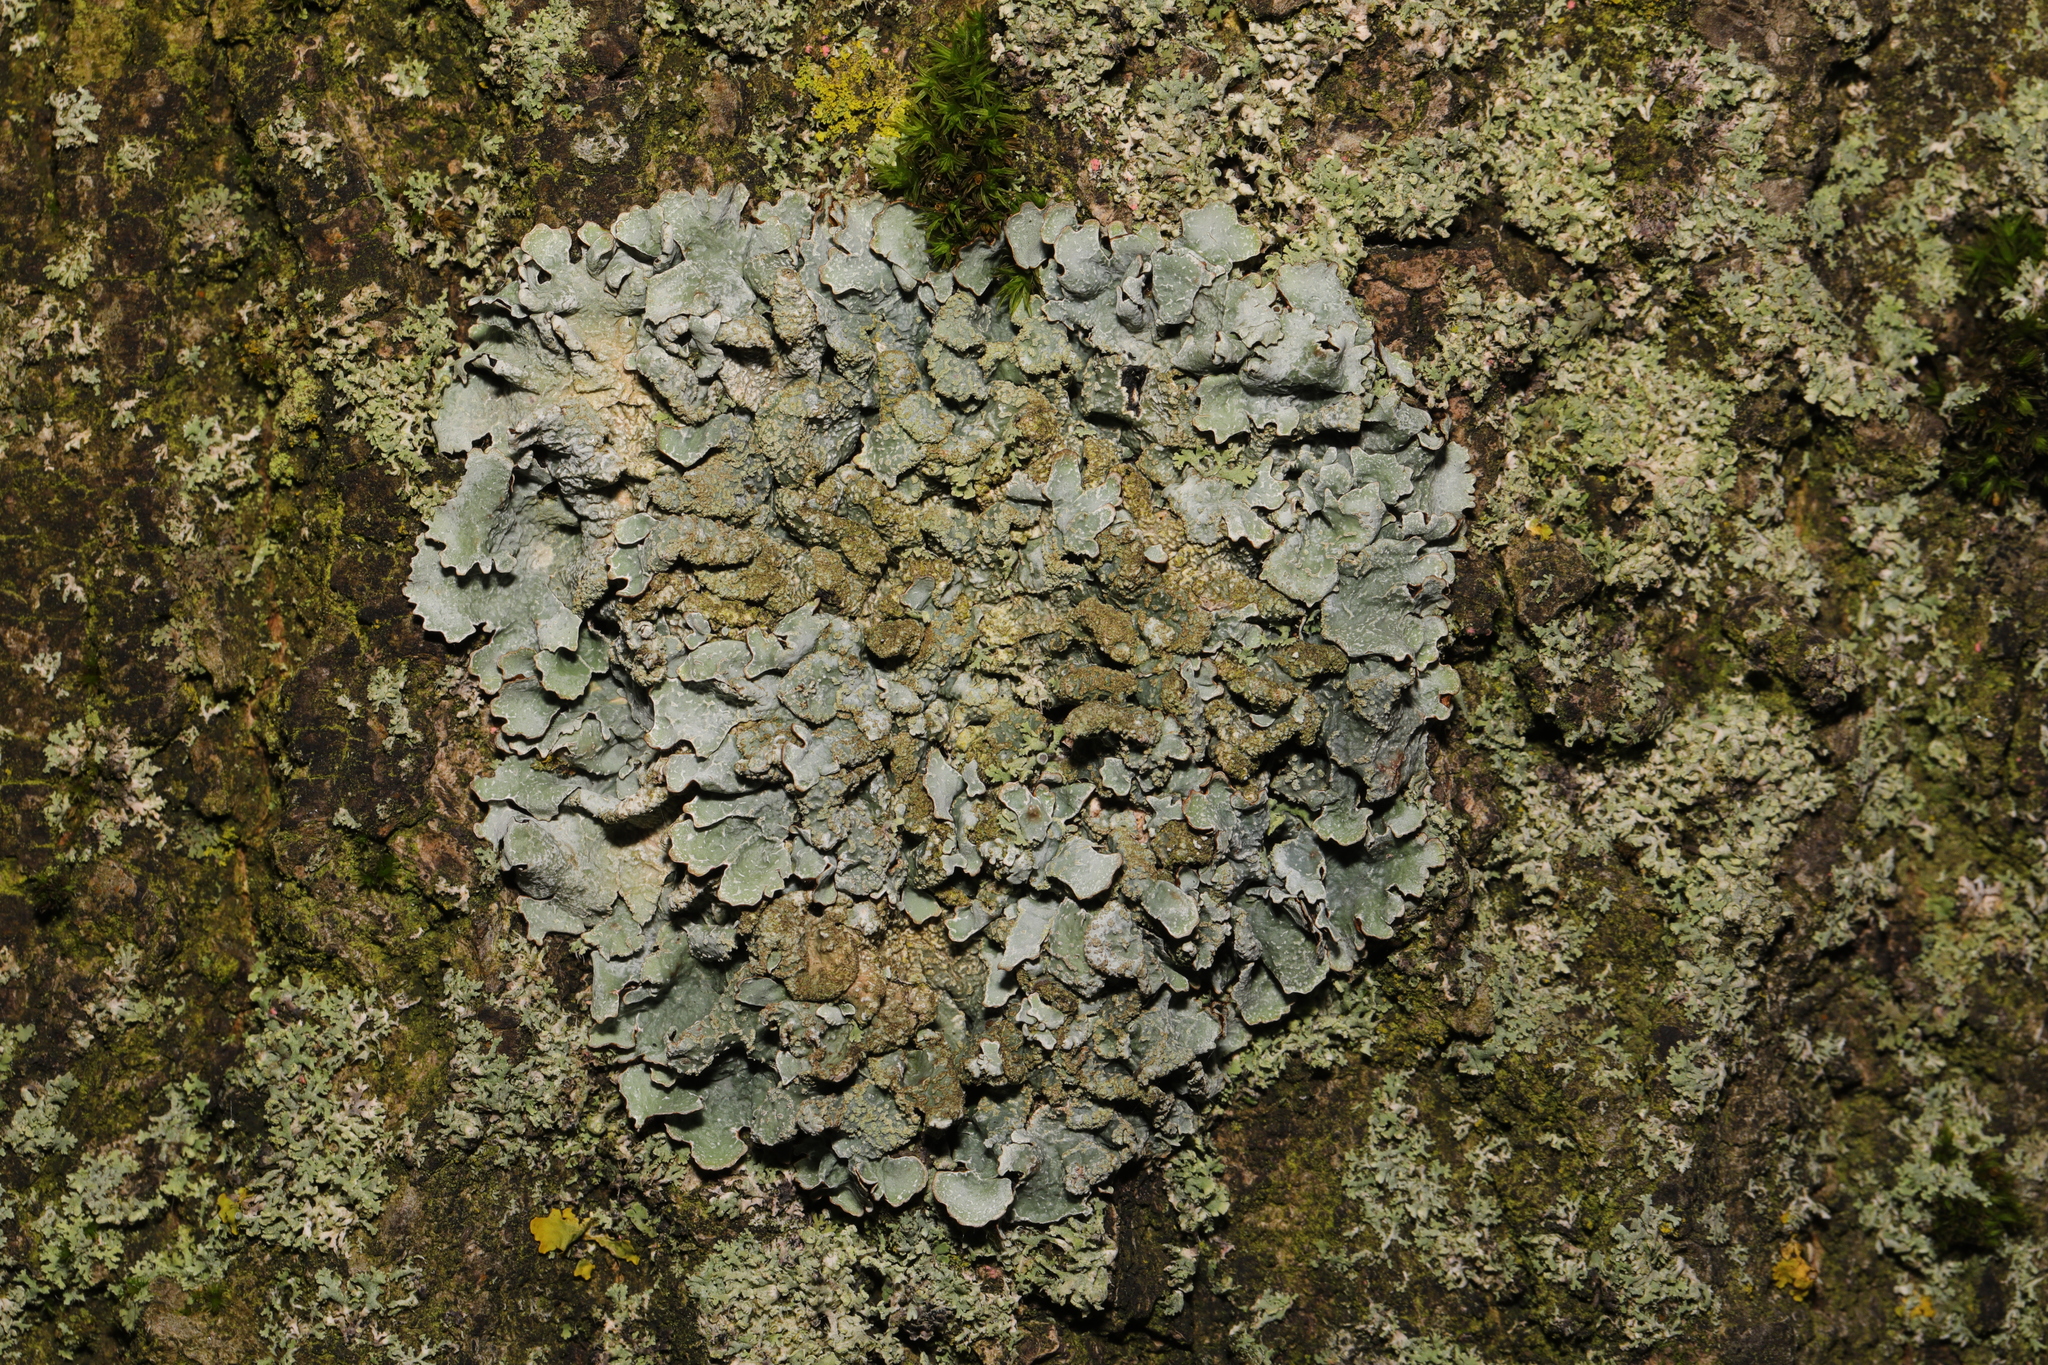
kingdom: Fungi
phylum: Ascomycota
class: Lecanoromycetes
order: Lecanorales
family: Parmeliaceae
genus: Parmelia
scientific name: Parmelia sulcata
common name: Netted shield lichen
